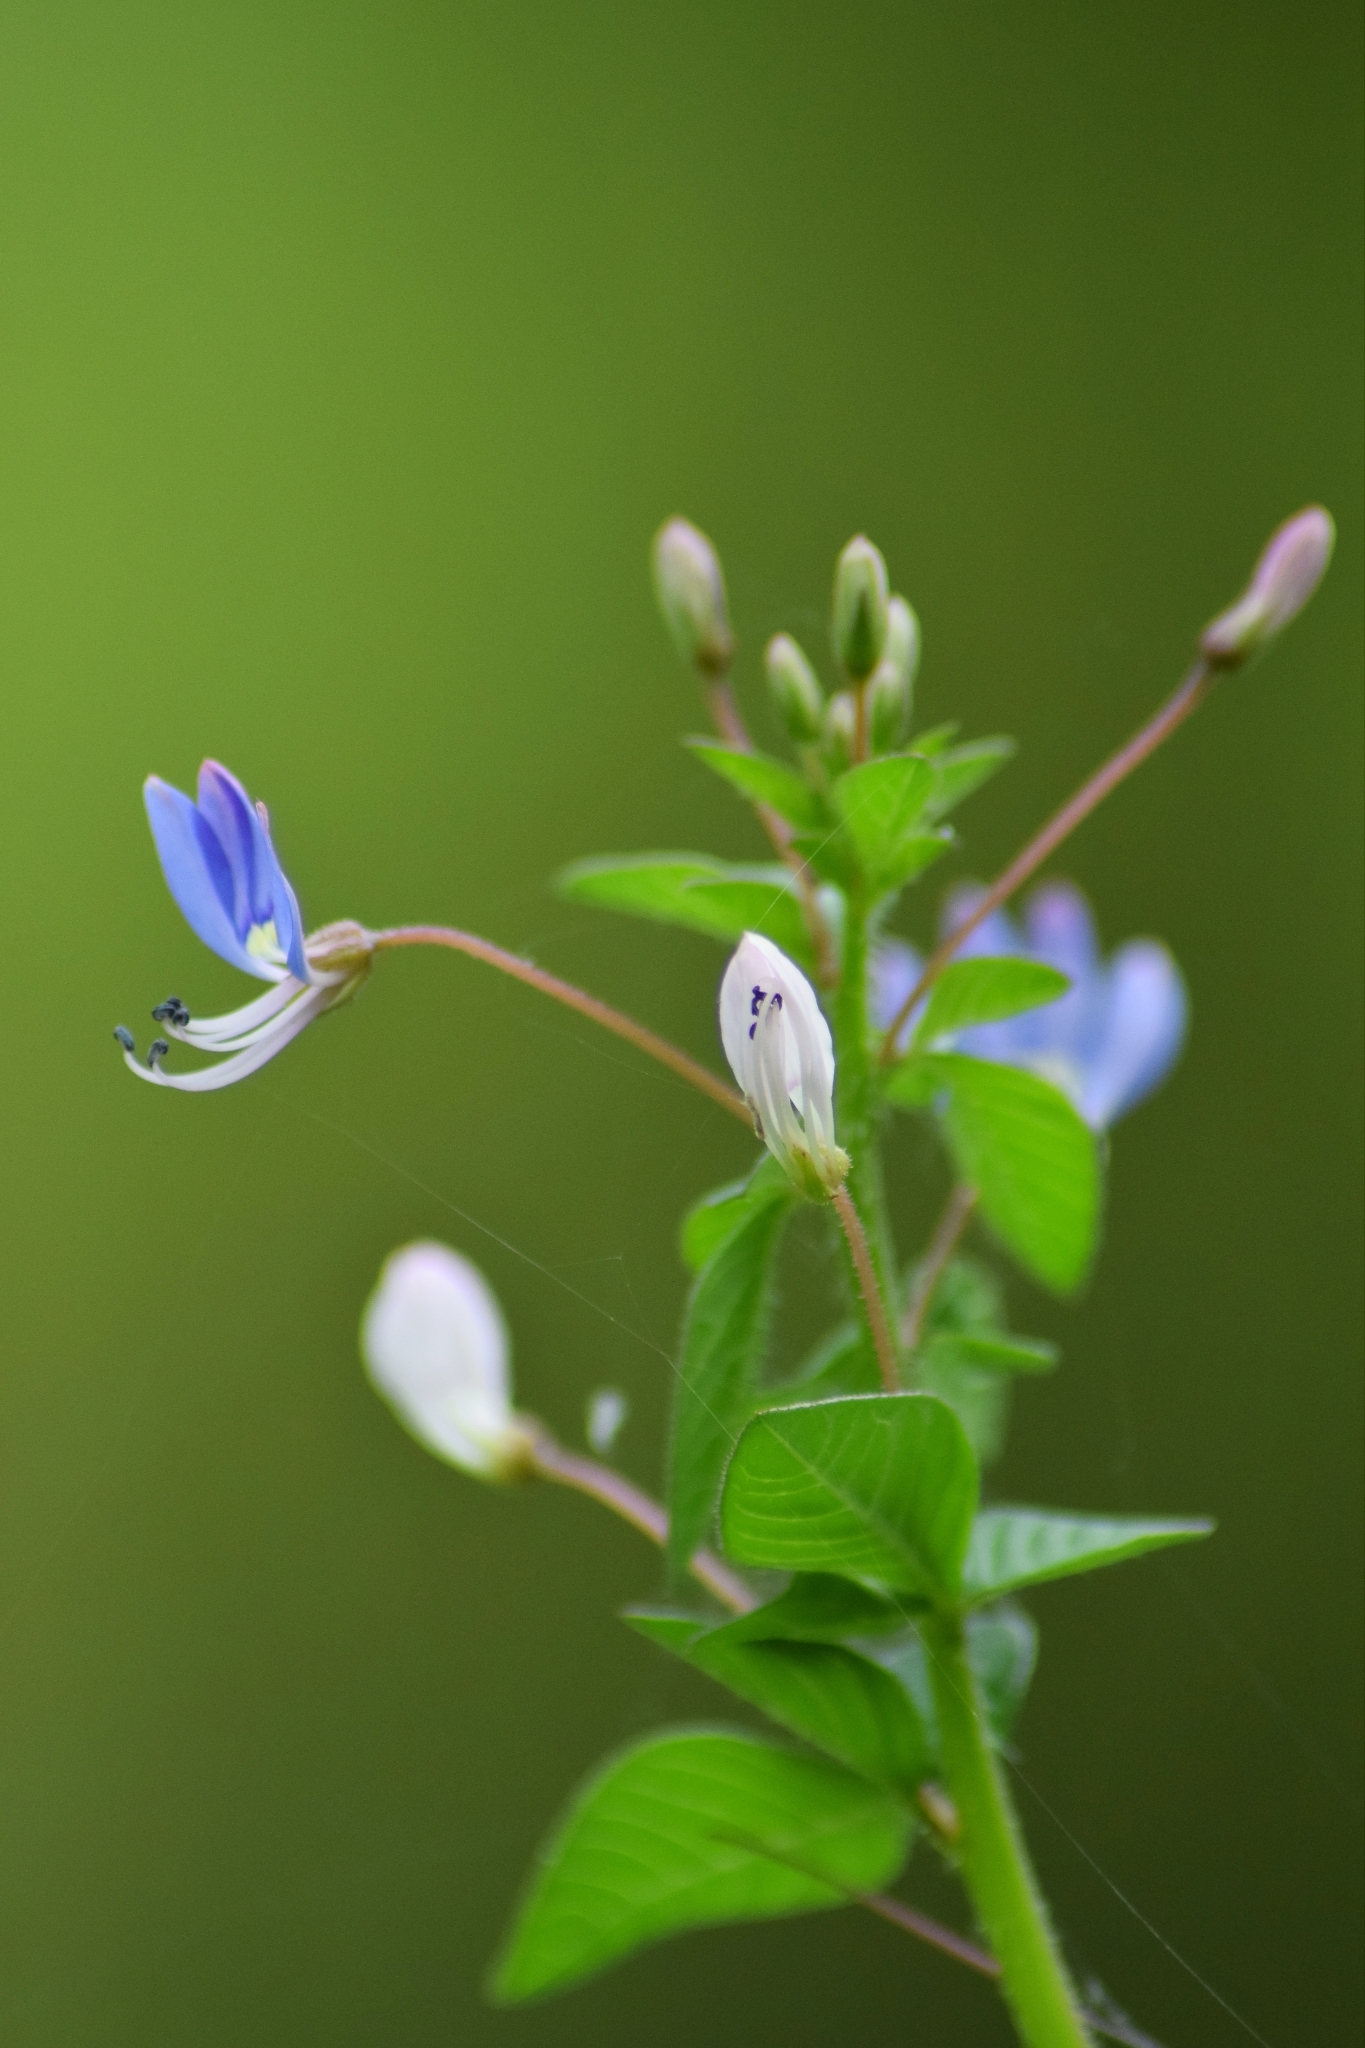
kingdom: Plantae
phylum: Tracheophyta
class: Magnoliopsida
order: Brassicales
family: Cleomaceae
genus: Sieruela
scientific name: Sieruela rutidosperma
